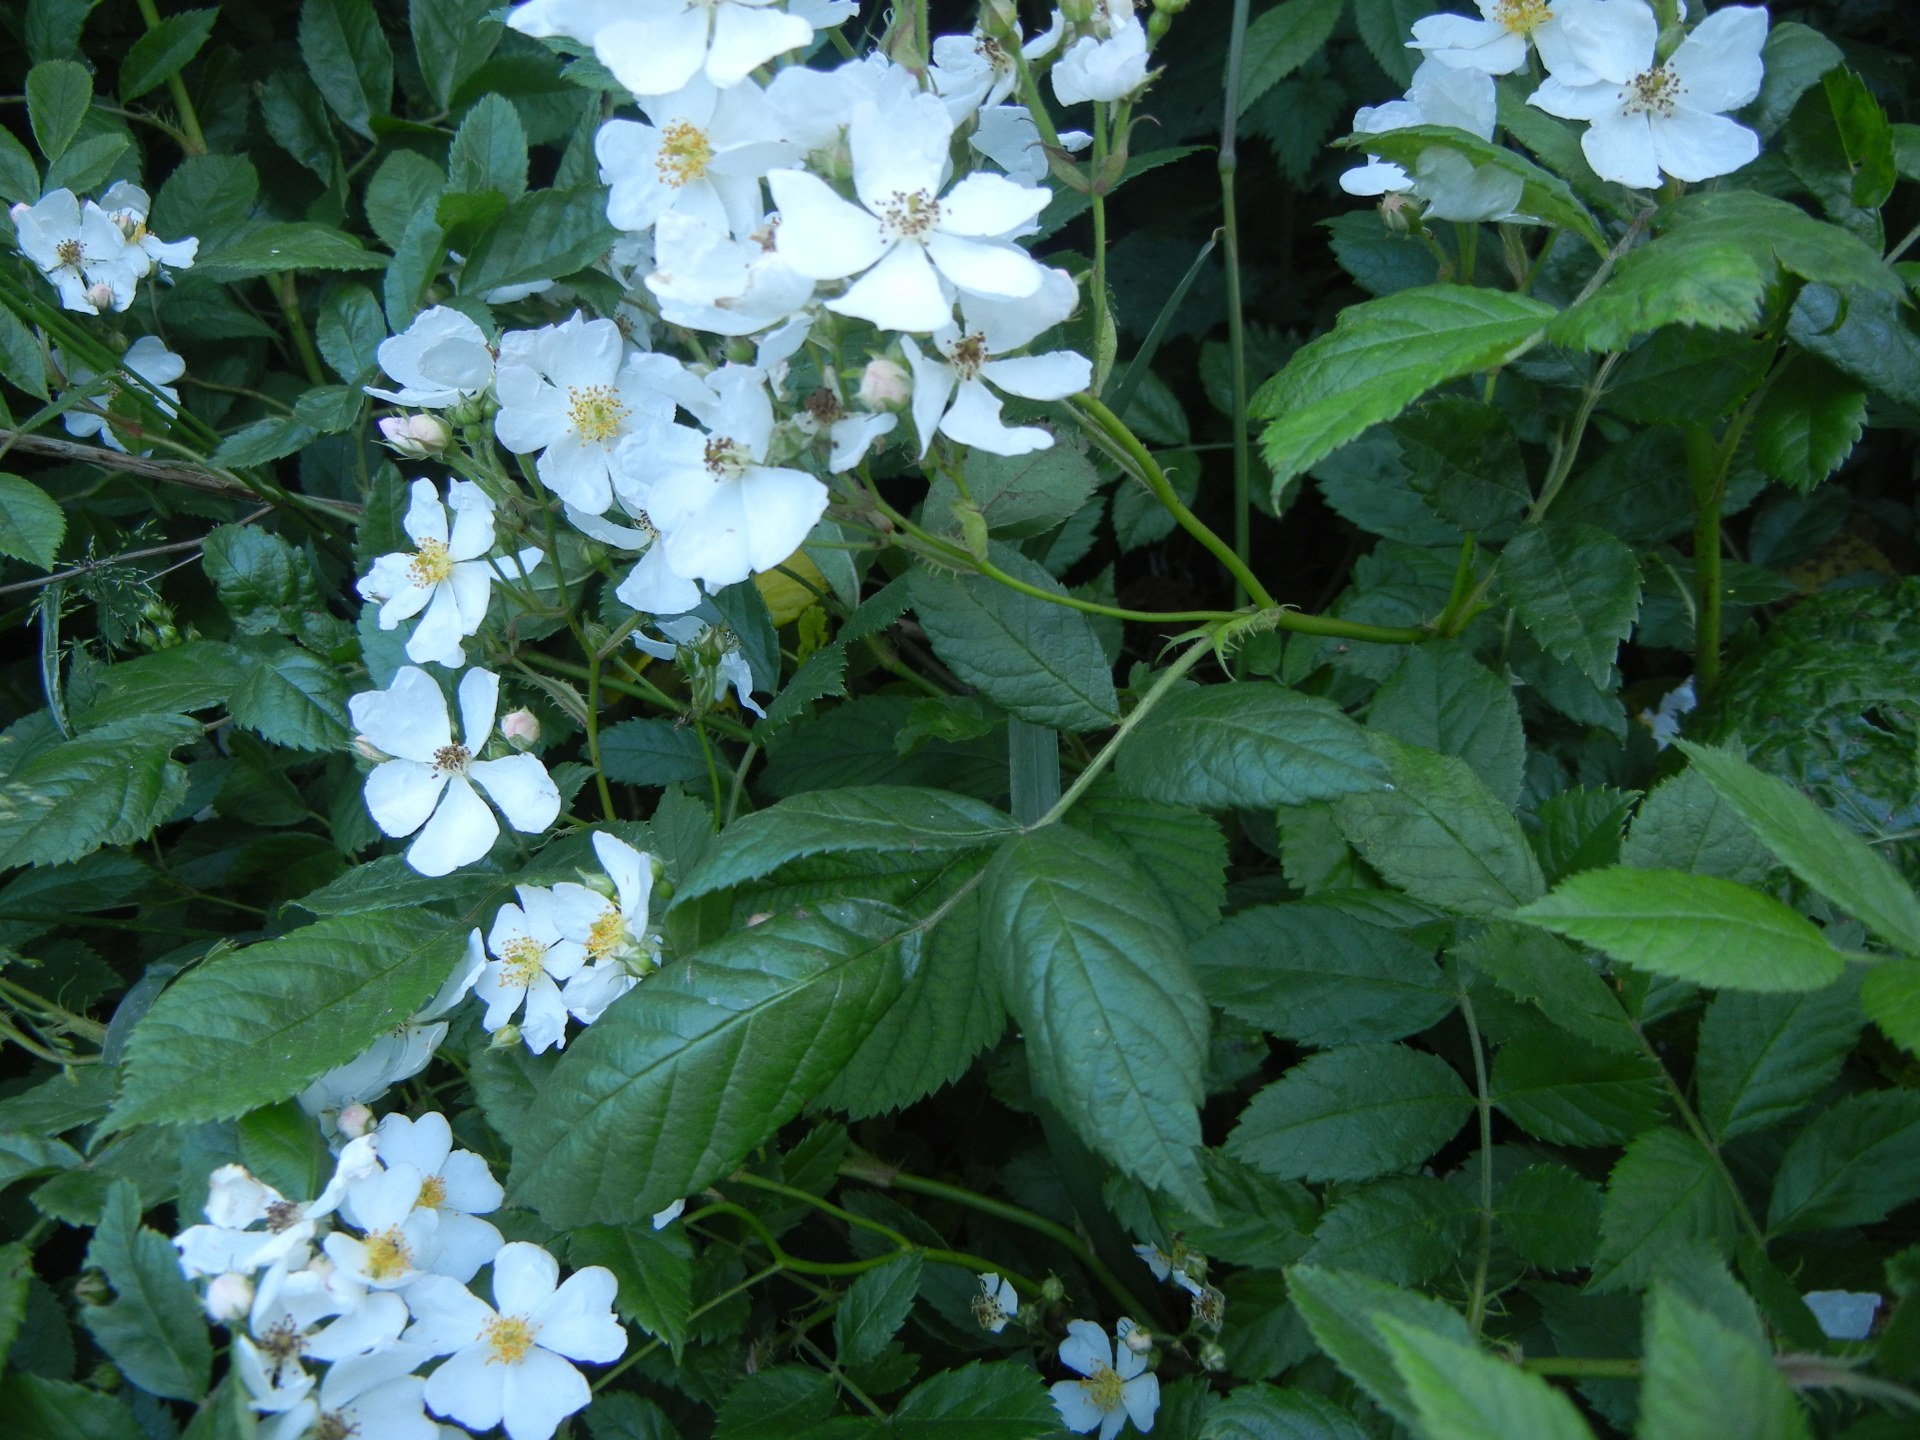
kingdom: Plantae
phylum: Tracheophyta
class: Magnoliopsida
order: Rosales
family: Rosaceae
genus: Rosa
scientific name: Rosa multiflora
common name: Multiflora rose
